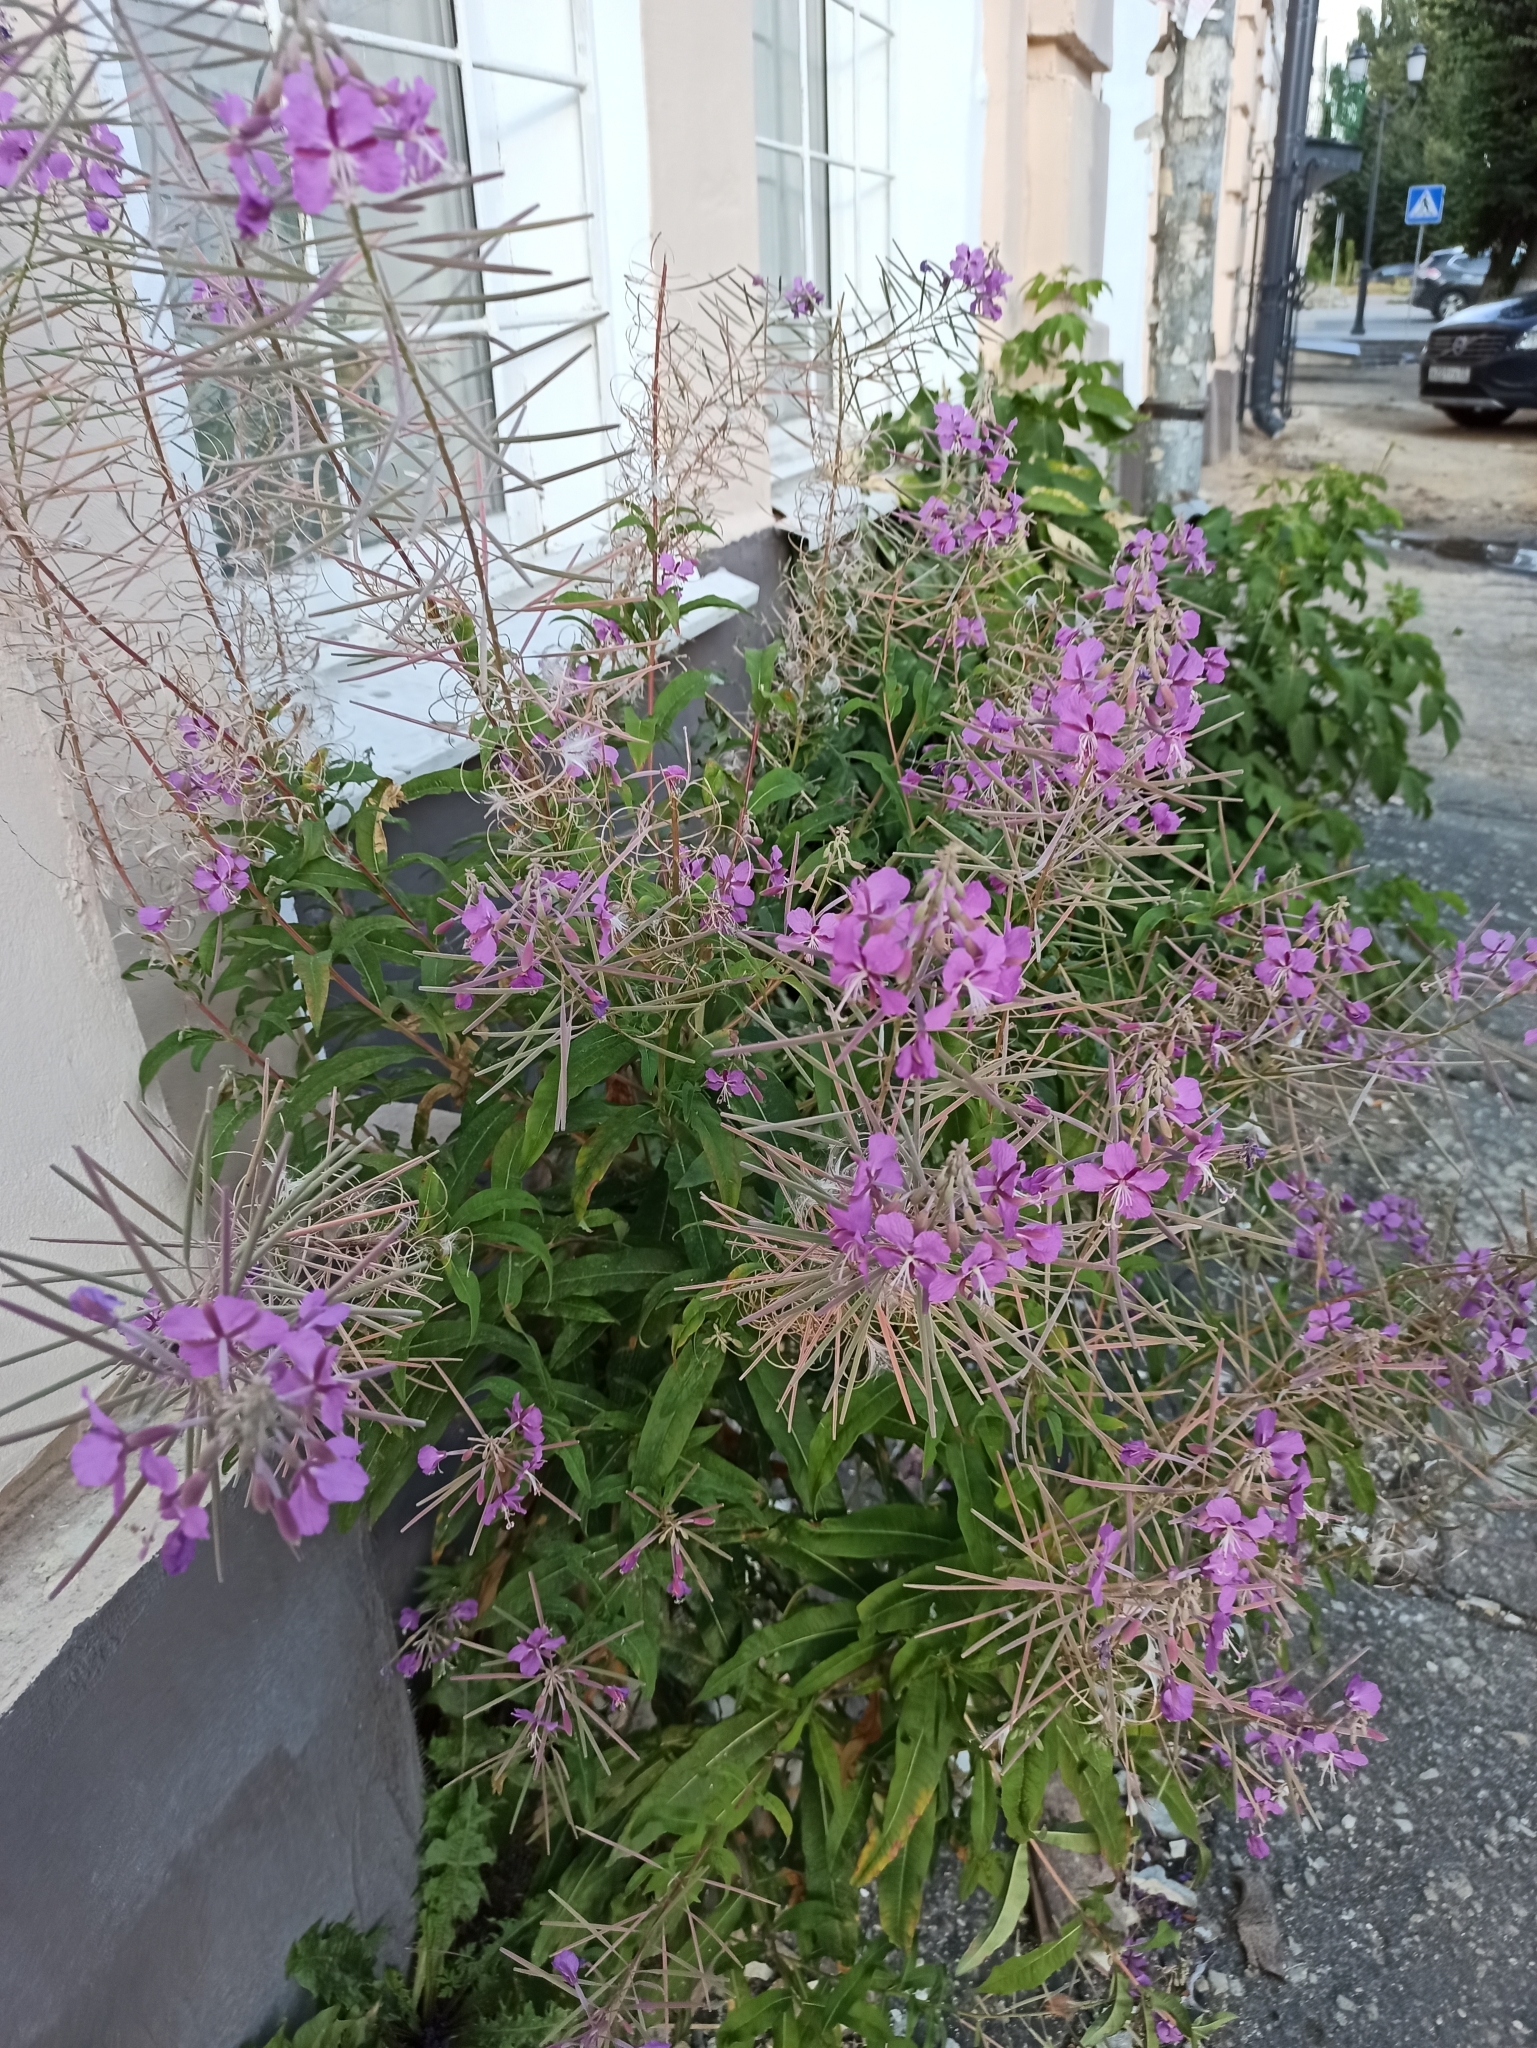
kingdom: Plantae
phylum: Tracheophyta
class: Magnoliopsida
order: Myrtales
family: Onagraceae
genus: Chamaenerion
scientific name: Chamaenerion angustifolium
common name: Fireweed
